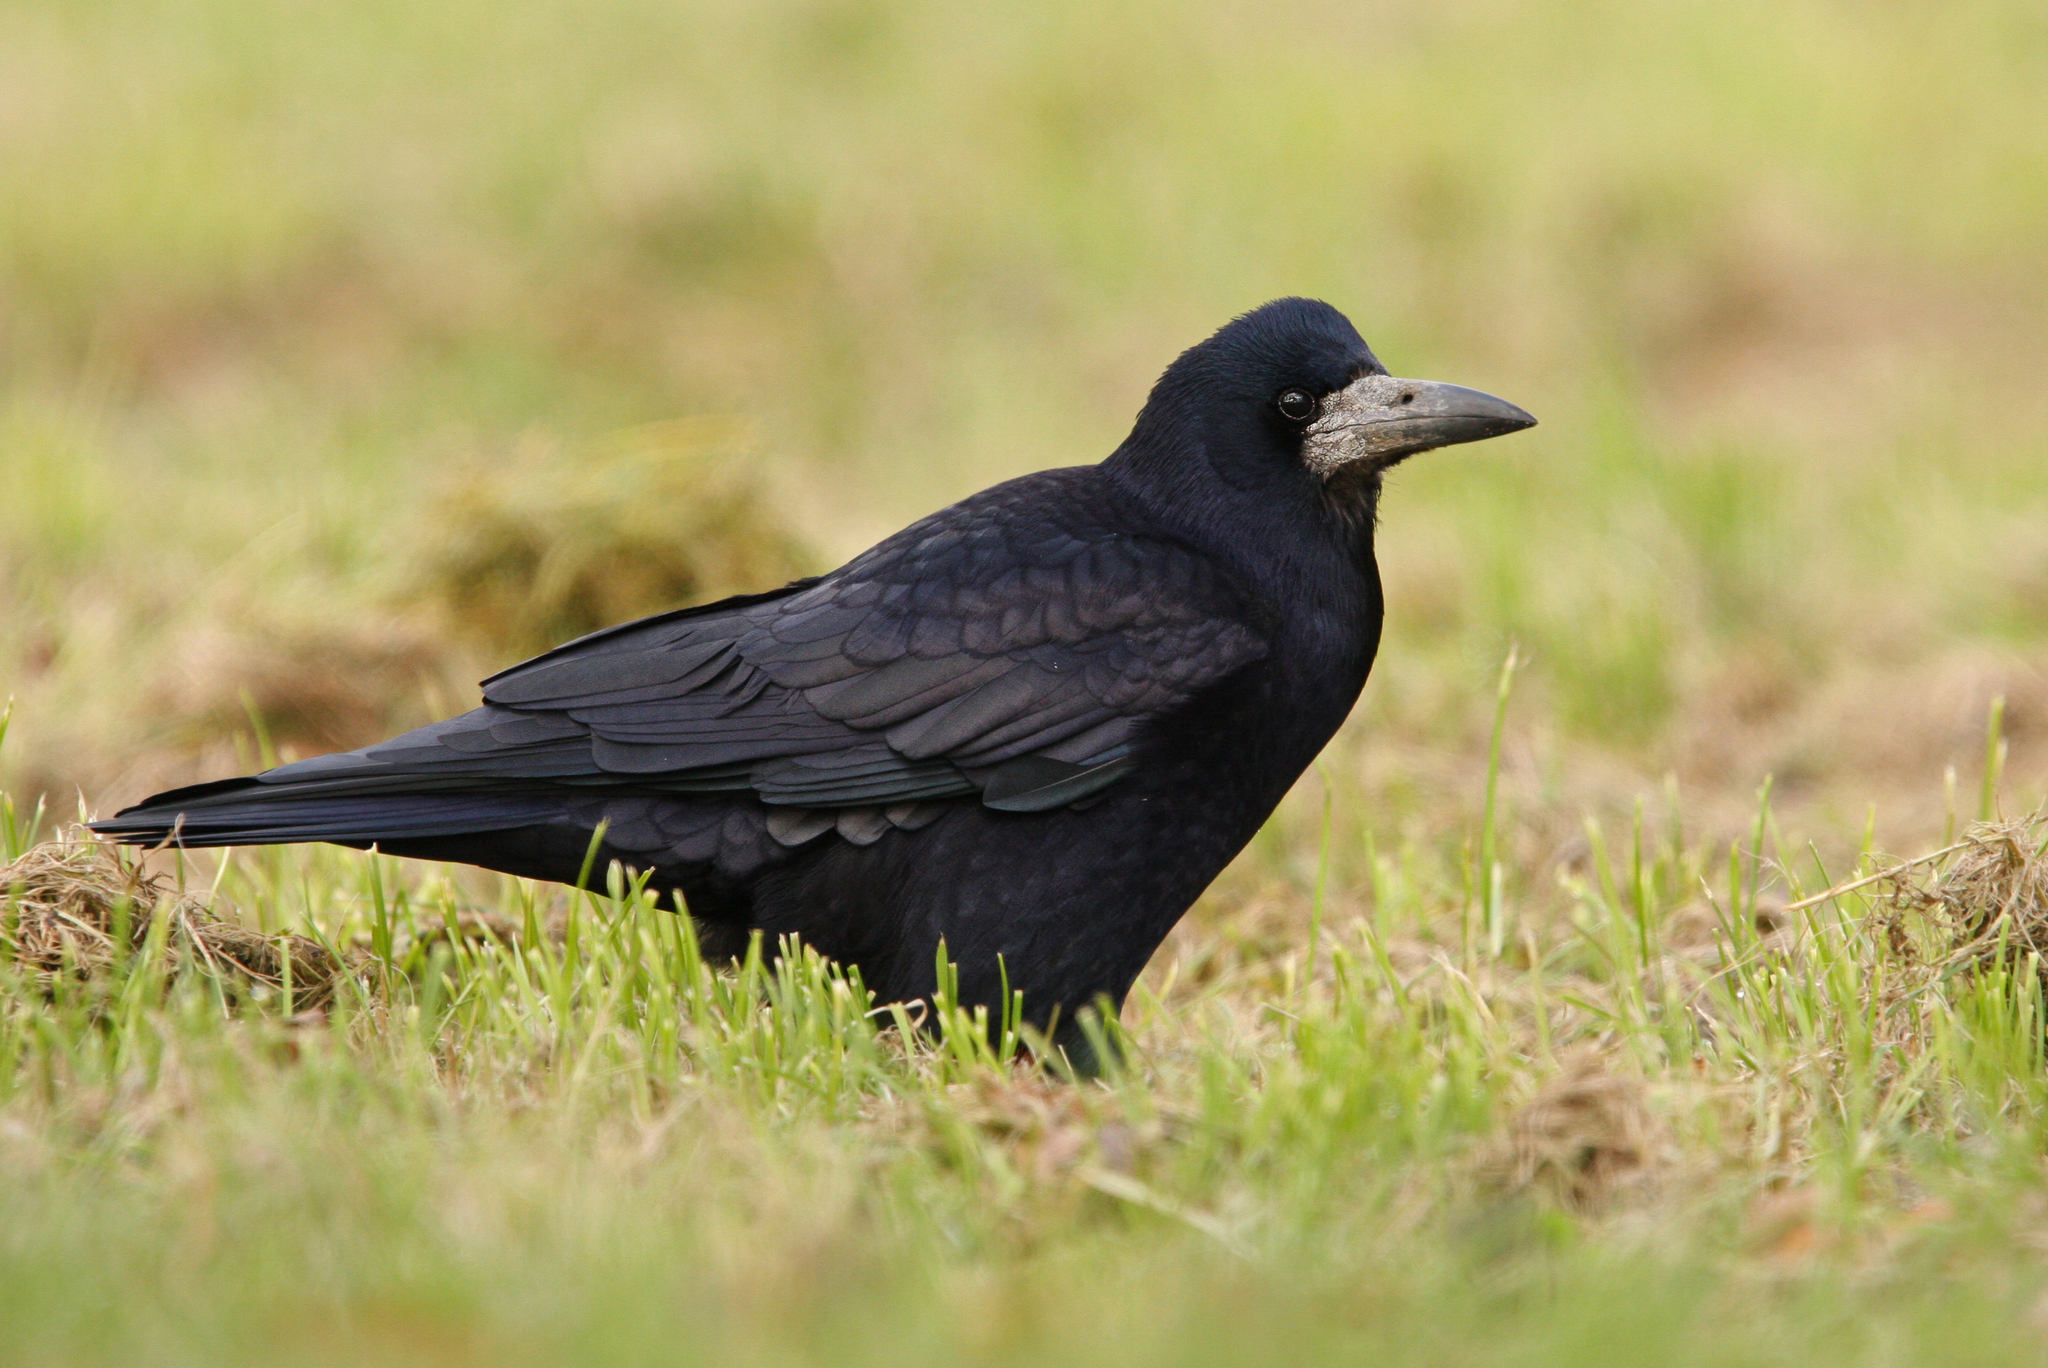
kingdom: Animalia
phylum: Chordata
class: Aves
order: Passeriformes
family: Corvidae
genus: Corvus
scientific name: Corvus frugilegus
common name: Rook
